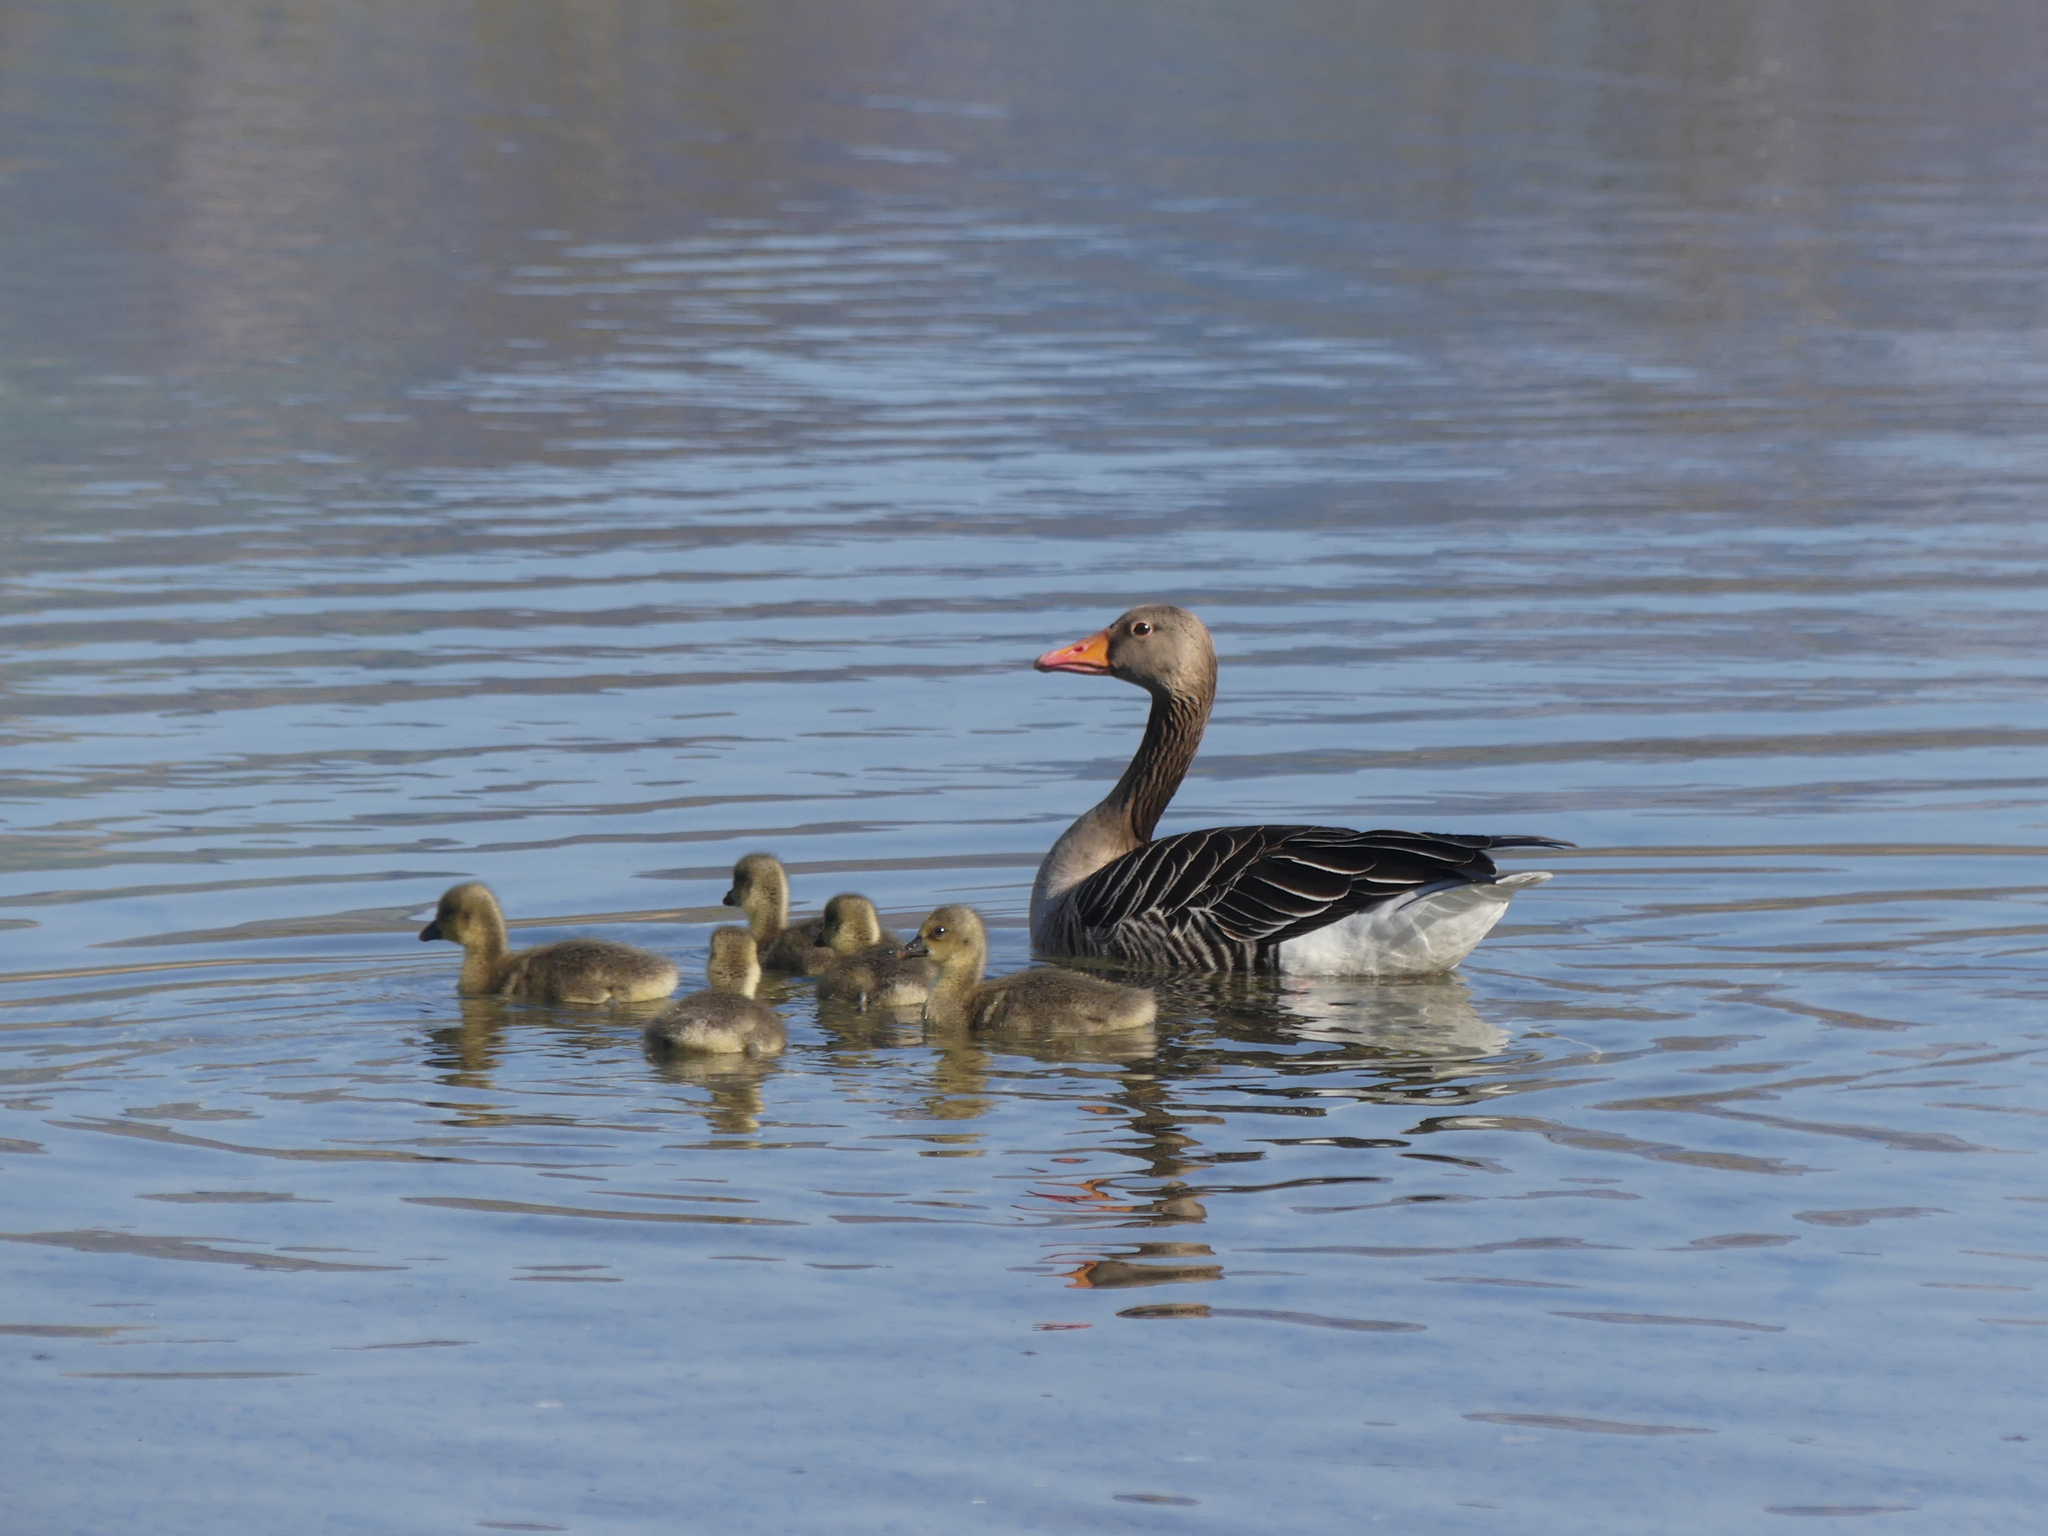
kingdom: Animalia
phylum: Chordata
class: Aves
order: Anseriformes
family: Anatidae
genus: Anser
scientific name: Anser anser
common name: Greylag goose
